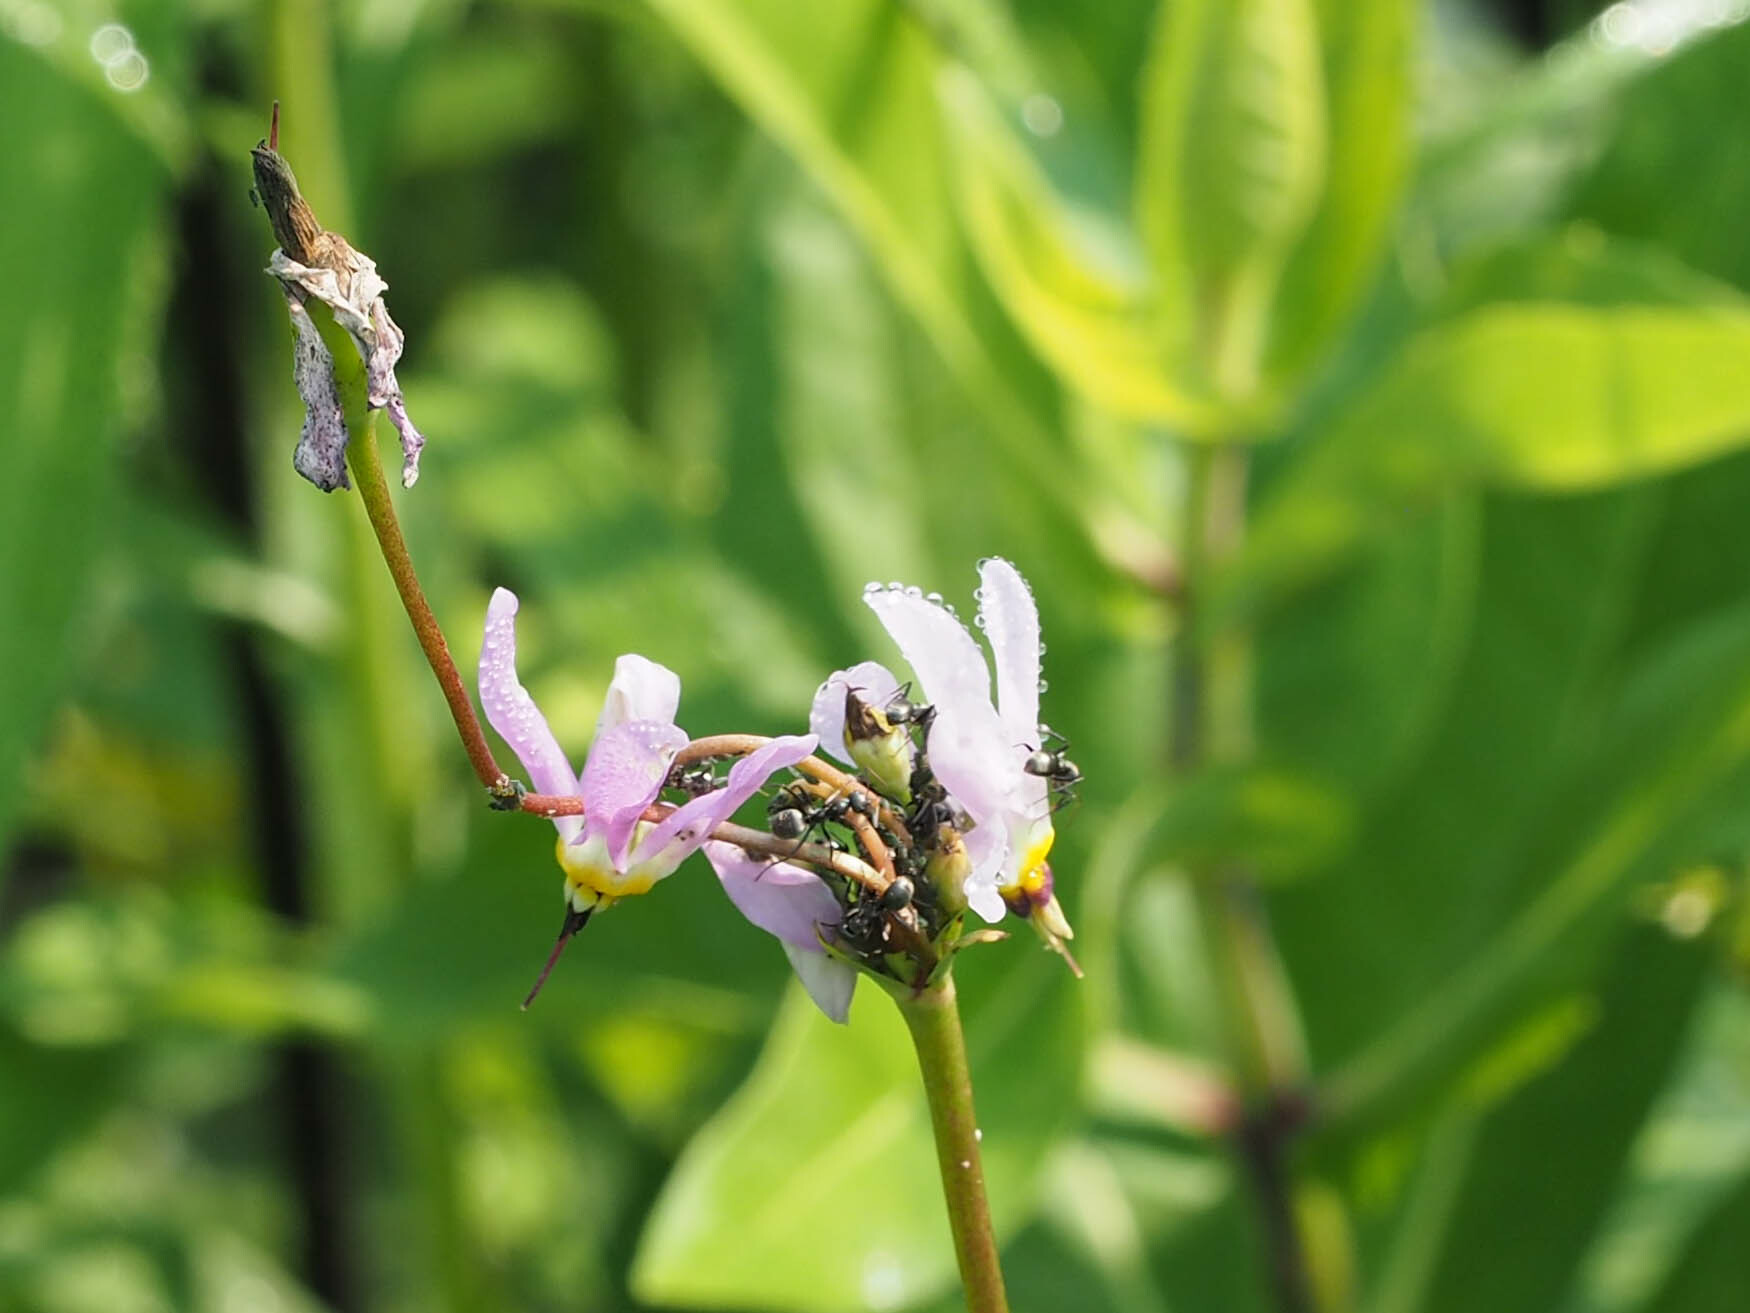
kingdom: Plantae
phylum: Tracheophyta
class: Magnoliopsida
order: Ericales
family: Primulaceae
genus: Dodecatheon
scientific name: Dodecatheon meadia
